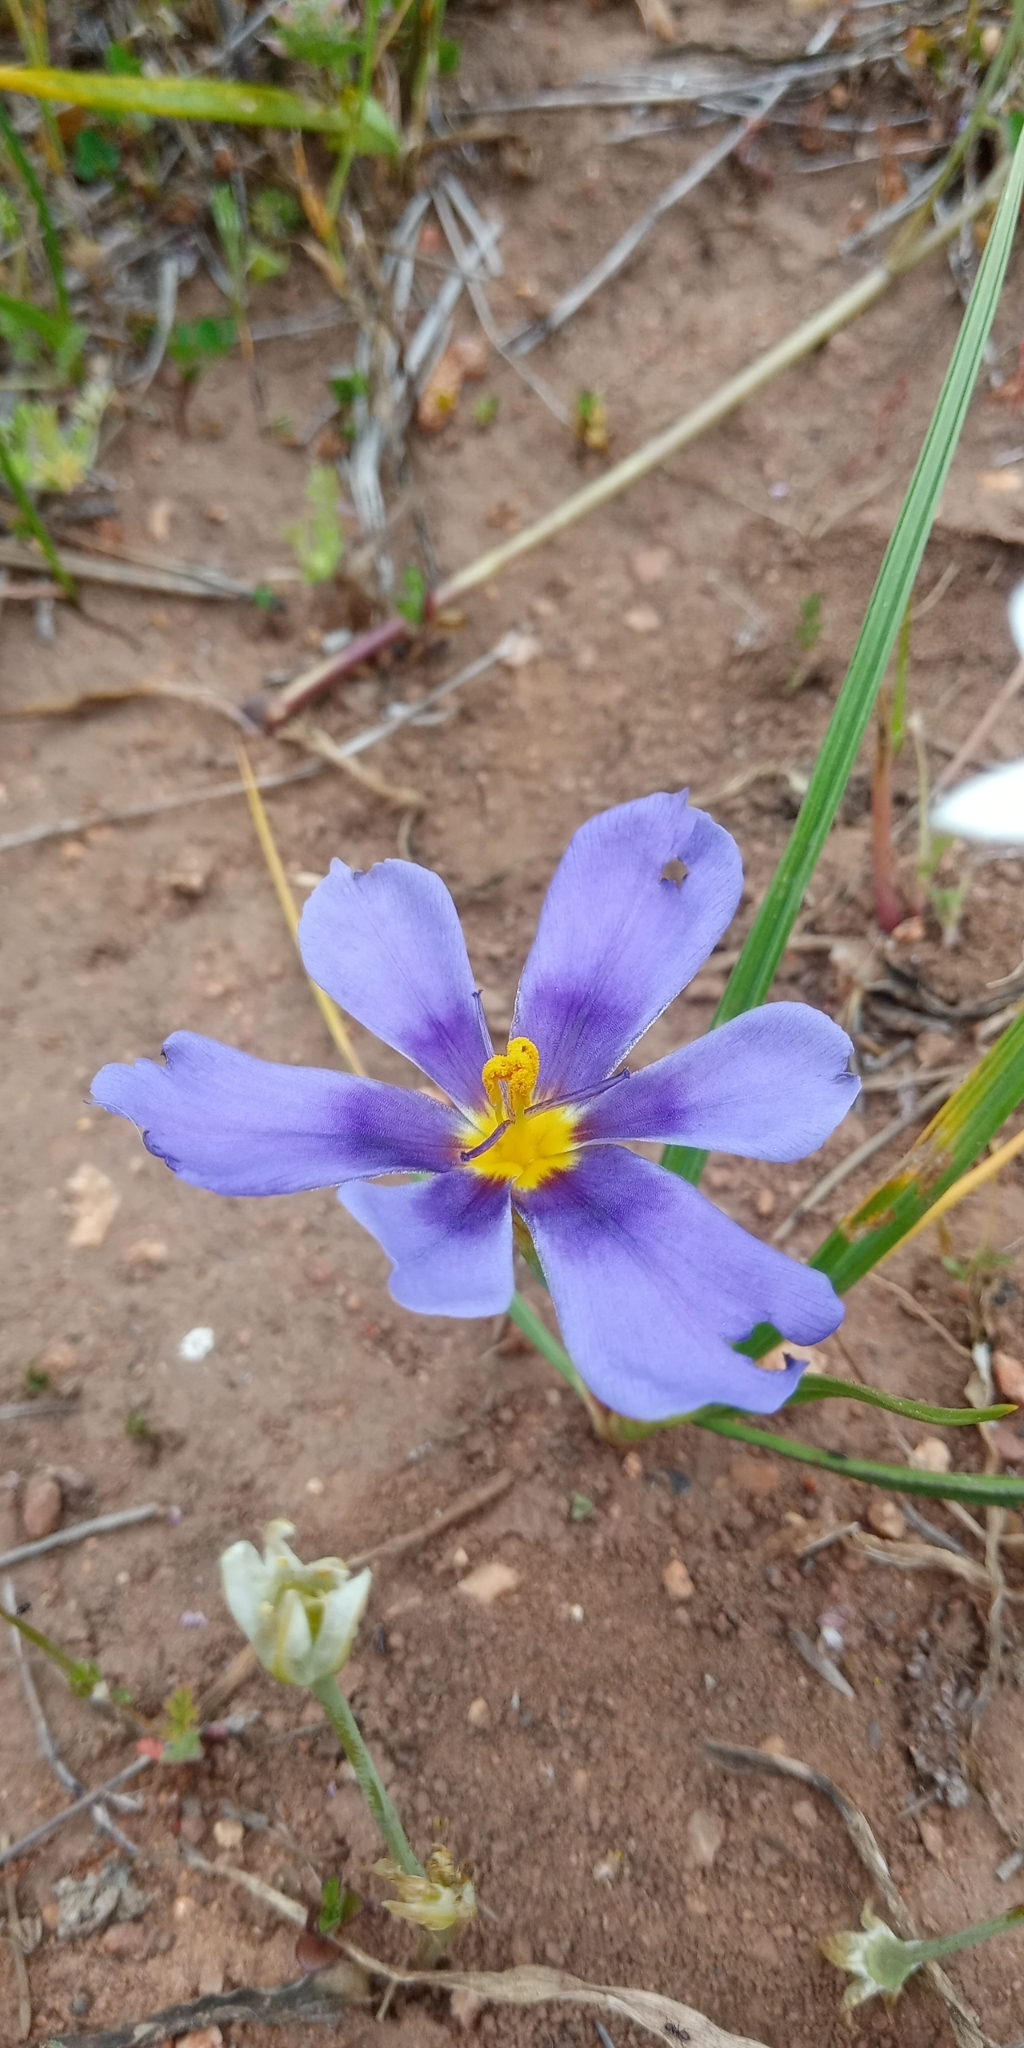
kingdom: Plantae
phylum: Tracheophyta
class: Liliopsida
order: Asparagales
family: Iridaceae
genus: Calydorea
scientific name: Calydorea xiphioides
